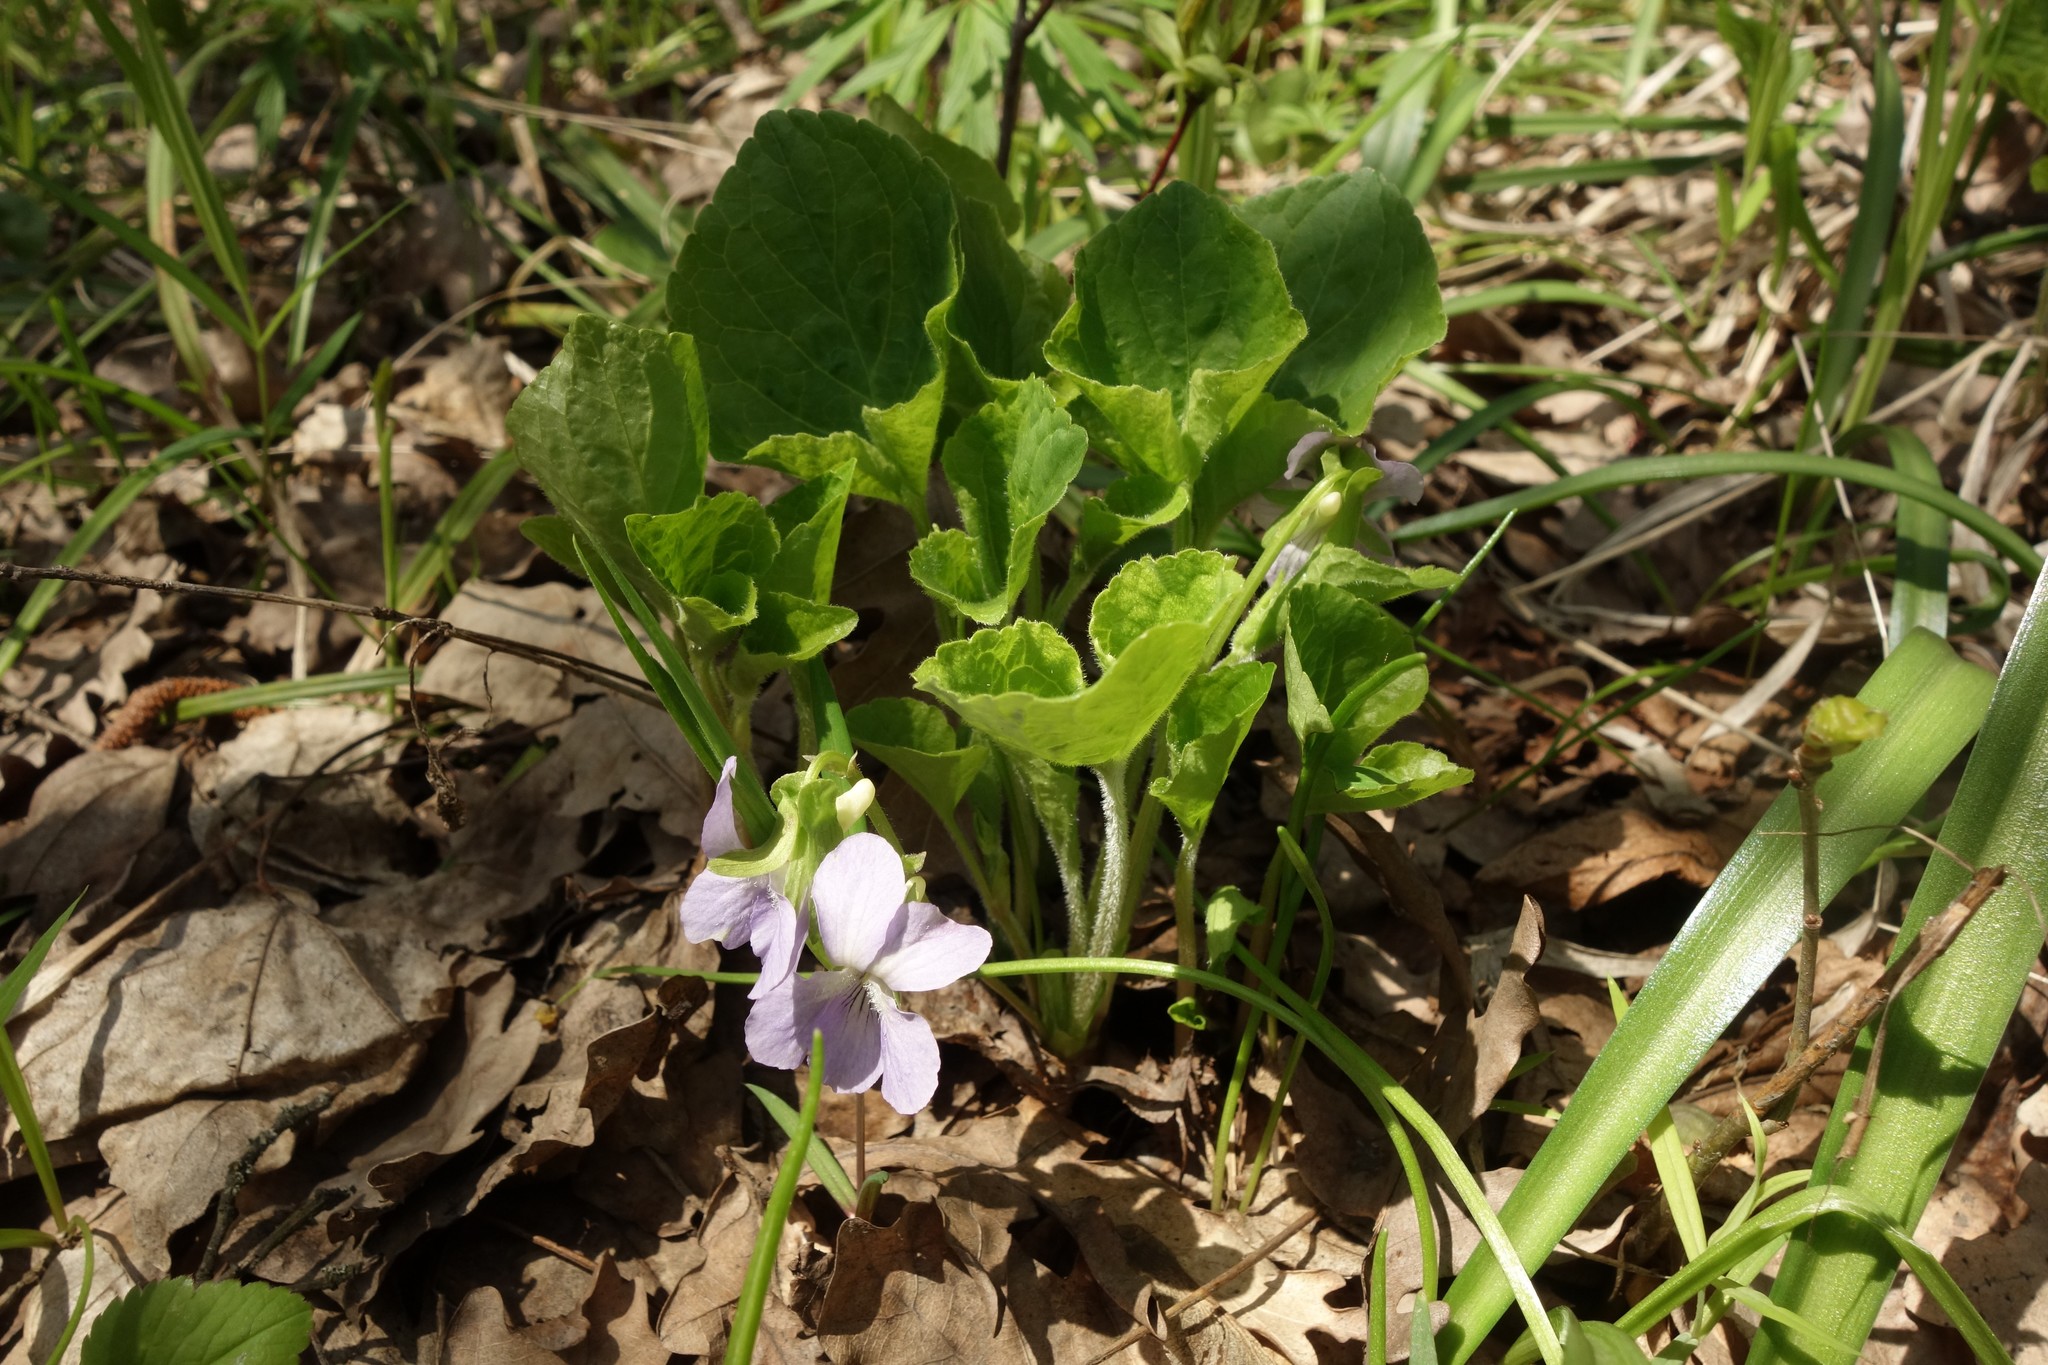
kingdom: Plantae
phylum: Tracheophyta
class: Magnoliopsida
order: Malpighiales
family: Violaceae
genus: Viola
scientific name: Viola mirabilis
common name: Wonder violet
